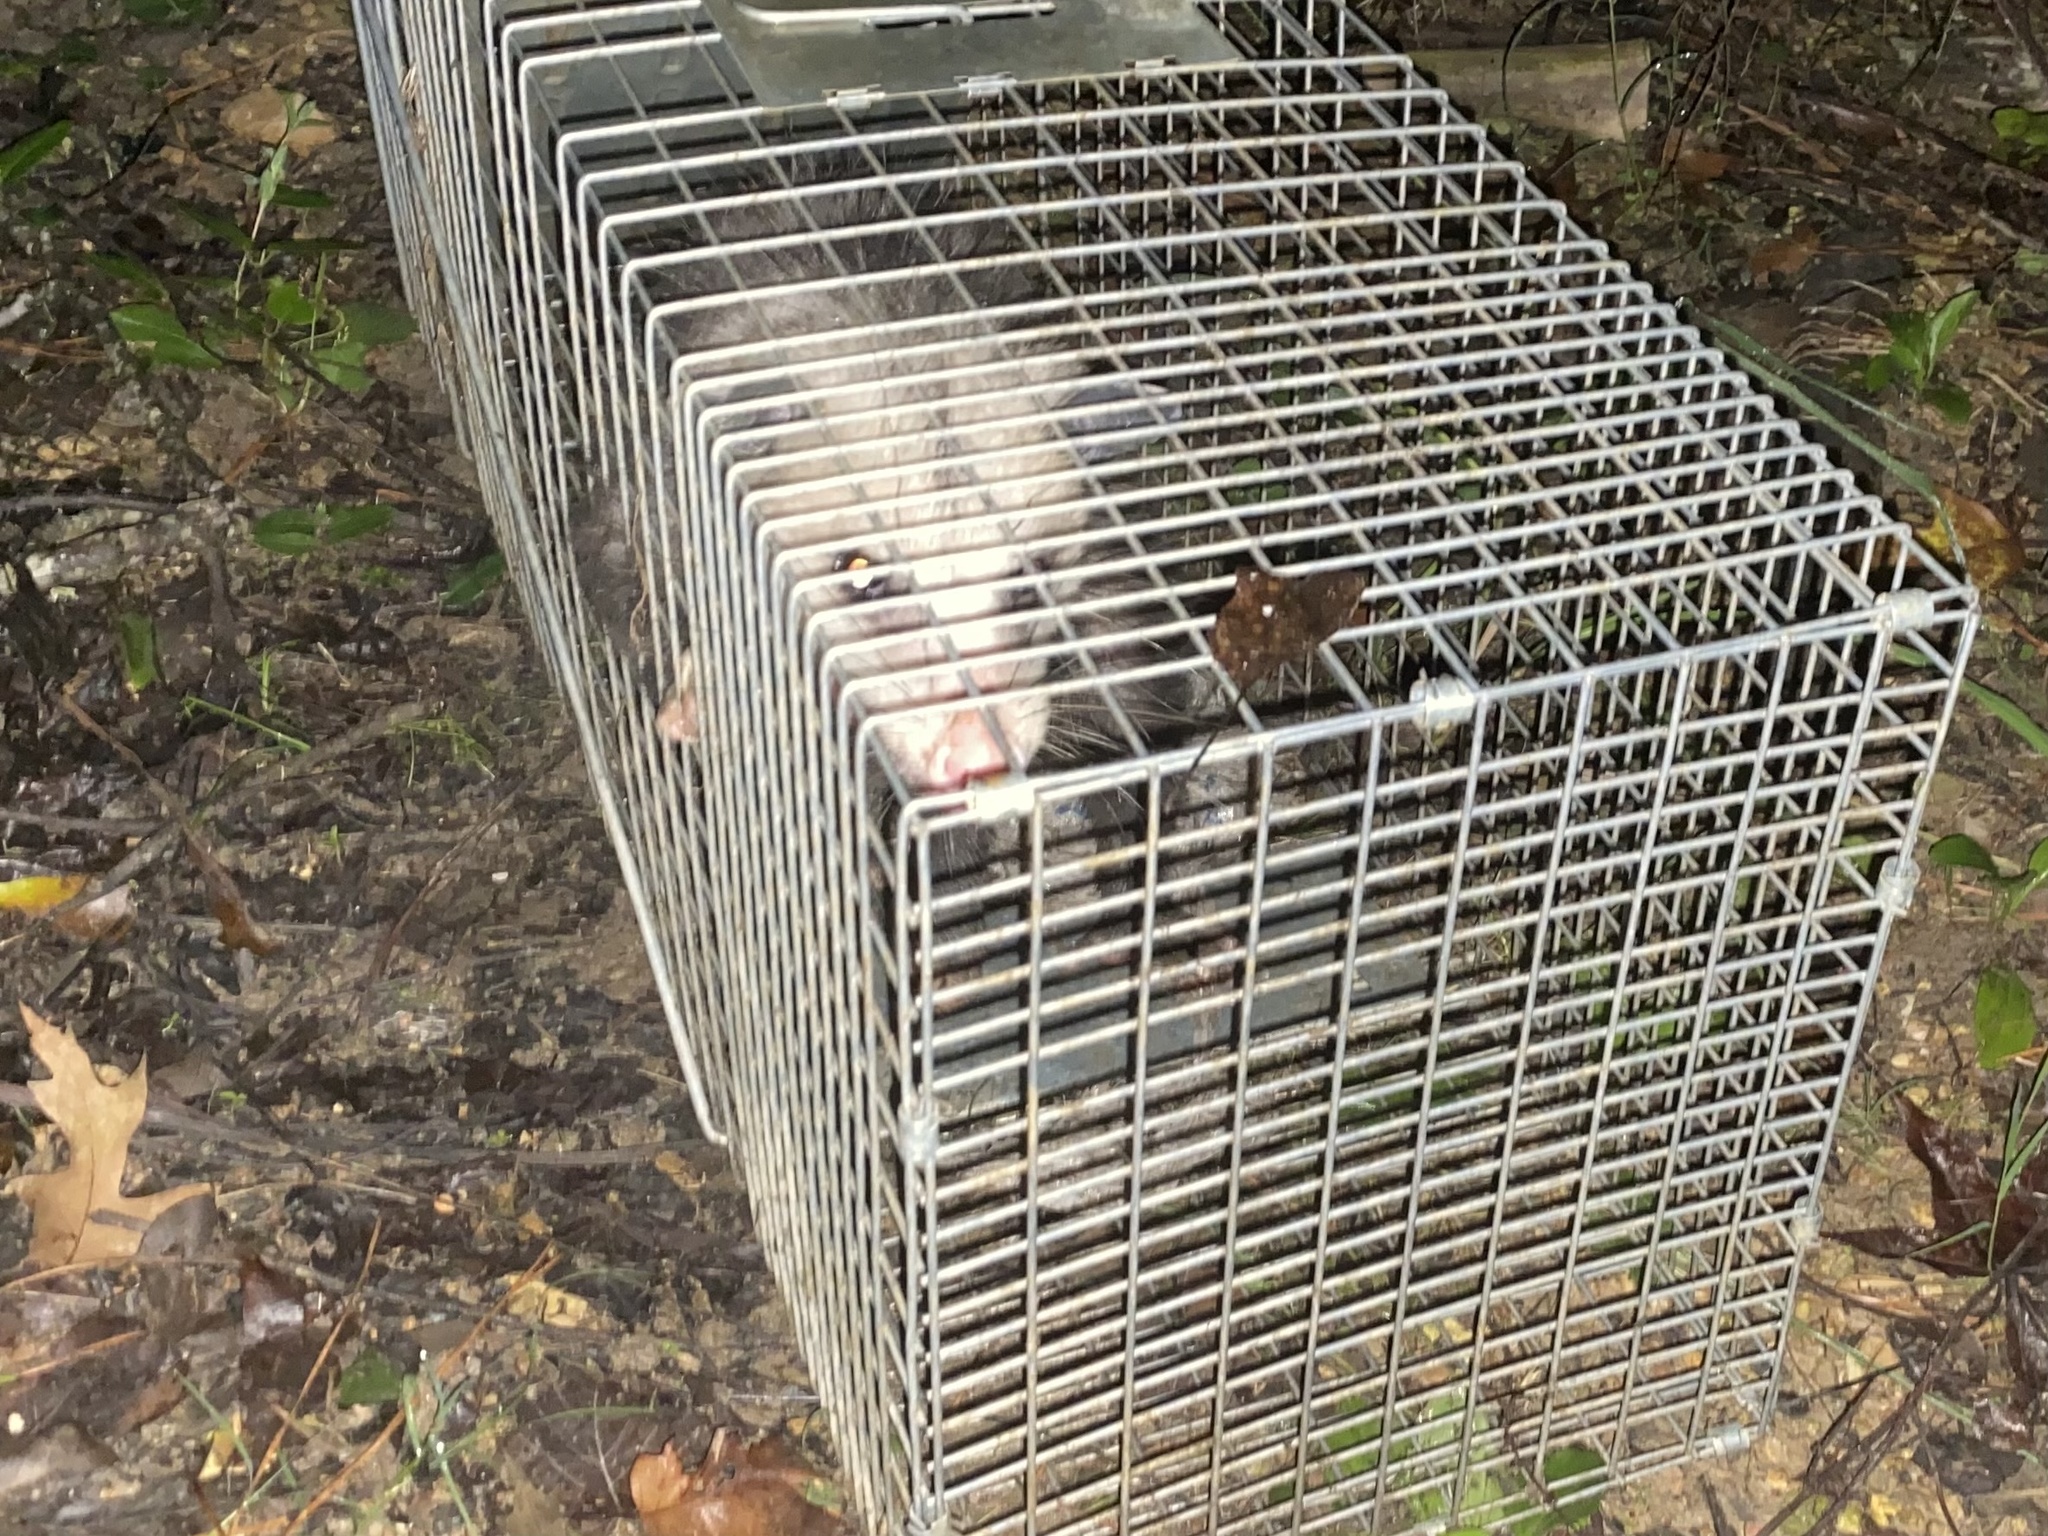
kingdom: Animalia
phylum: Chordata
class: Mammalia
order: Didelphimorphia
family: Didelphidae
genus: Didelphis
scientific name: Didelphis virginiana
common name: Virginia opossum
